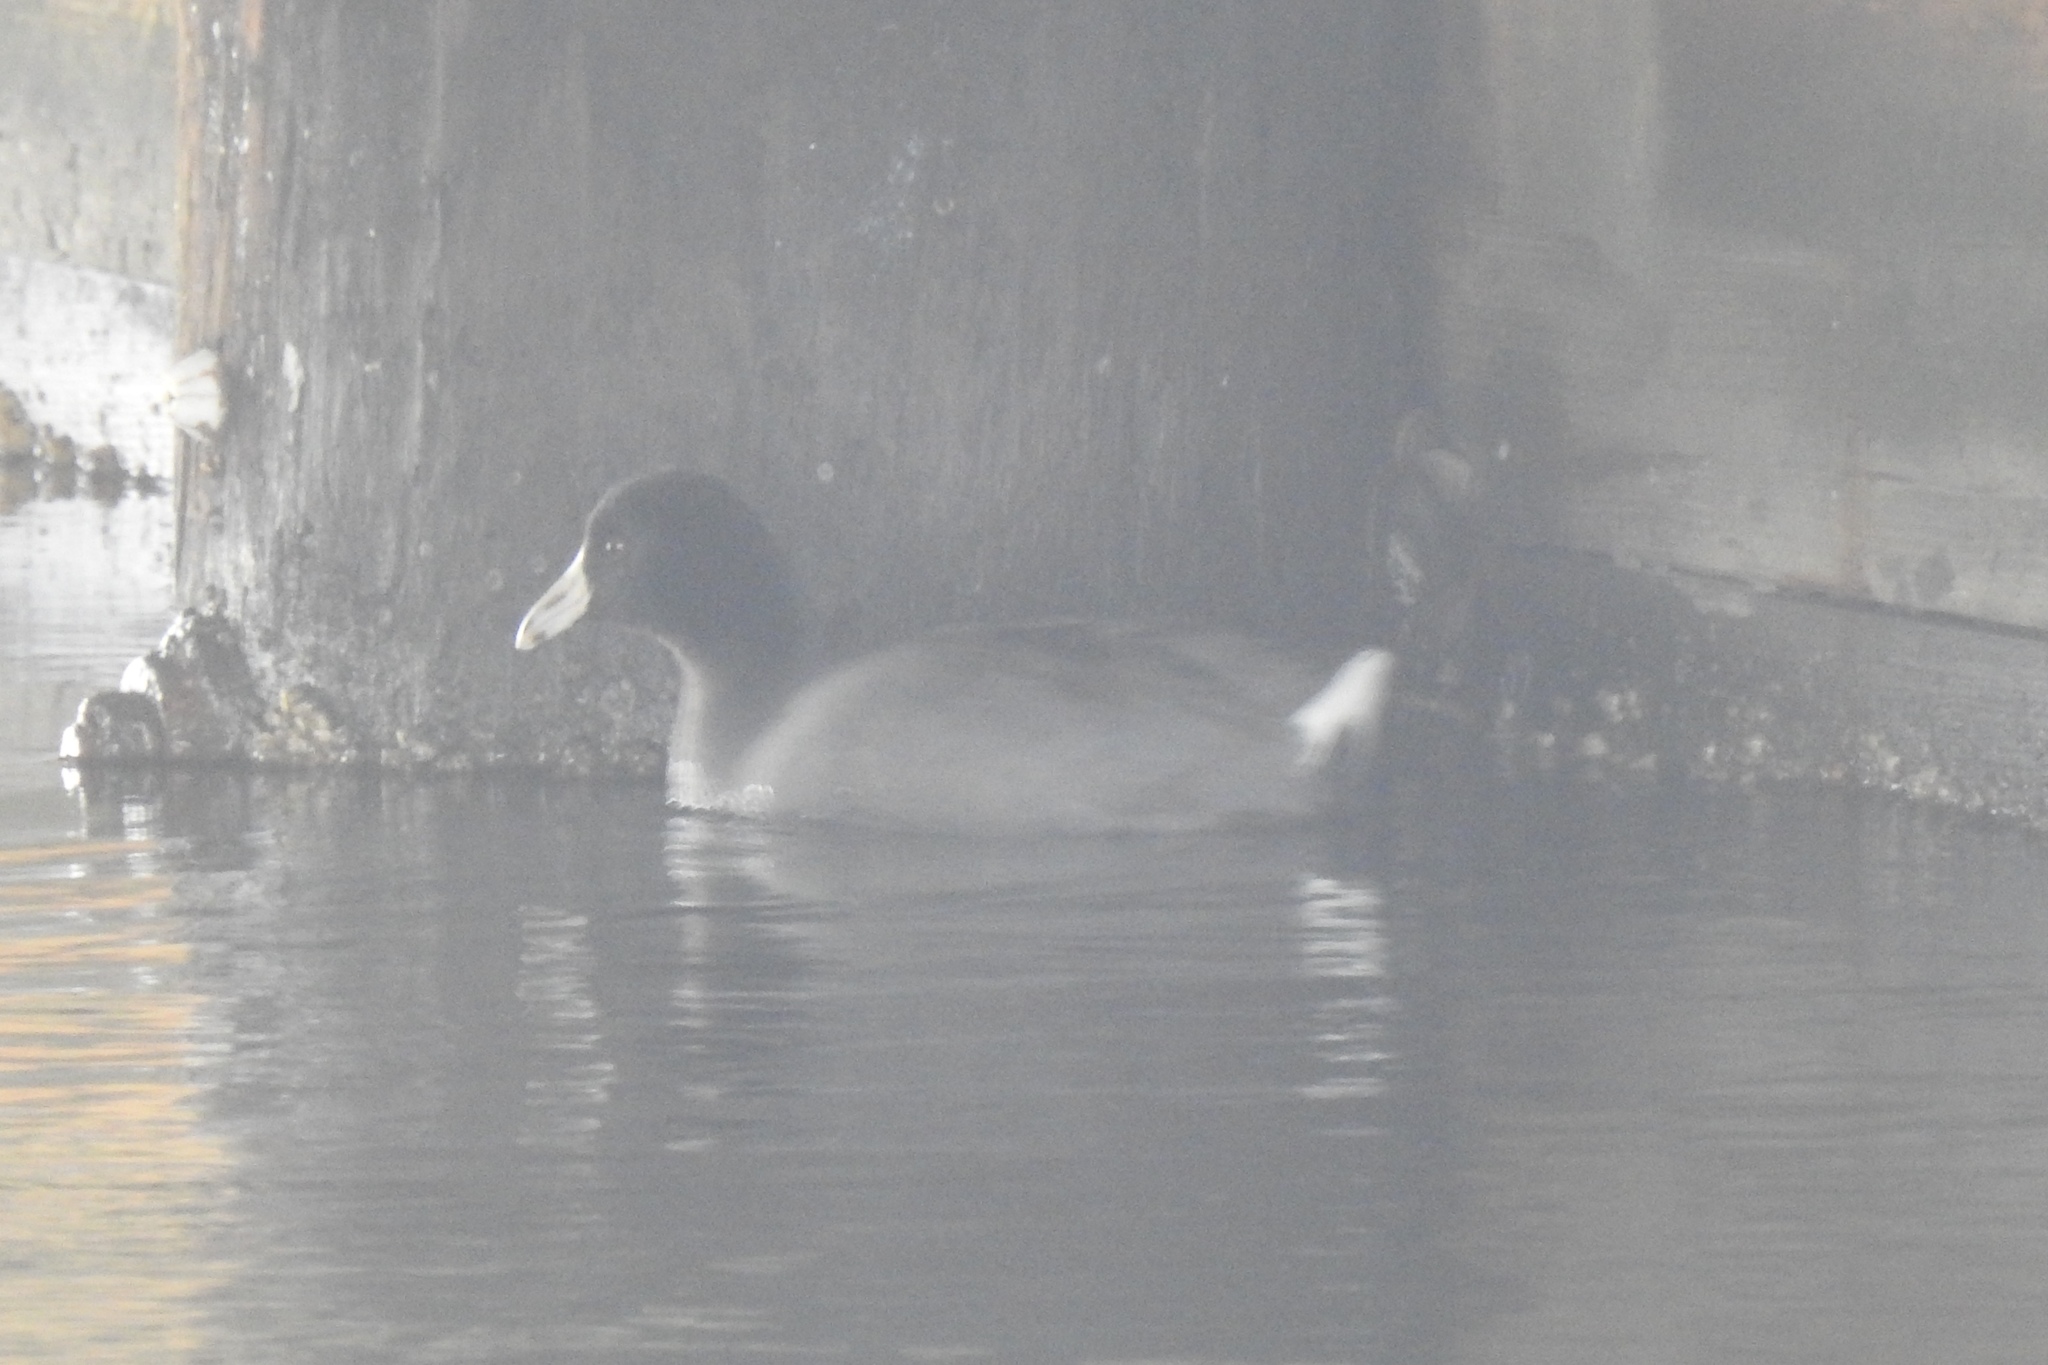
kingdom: Animalia
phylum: Chordata
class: Aves
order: Gruiformes
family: Rallidae
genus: Fulica
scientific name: Fulica americana
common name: American coot
